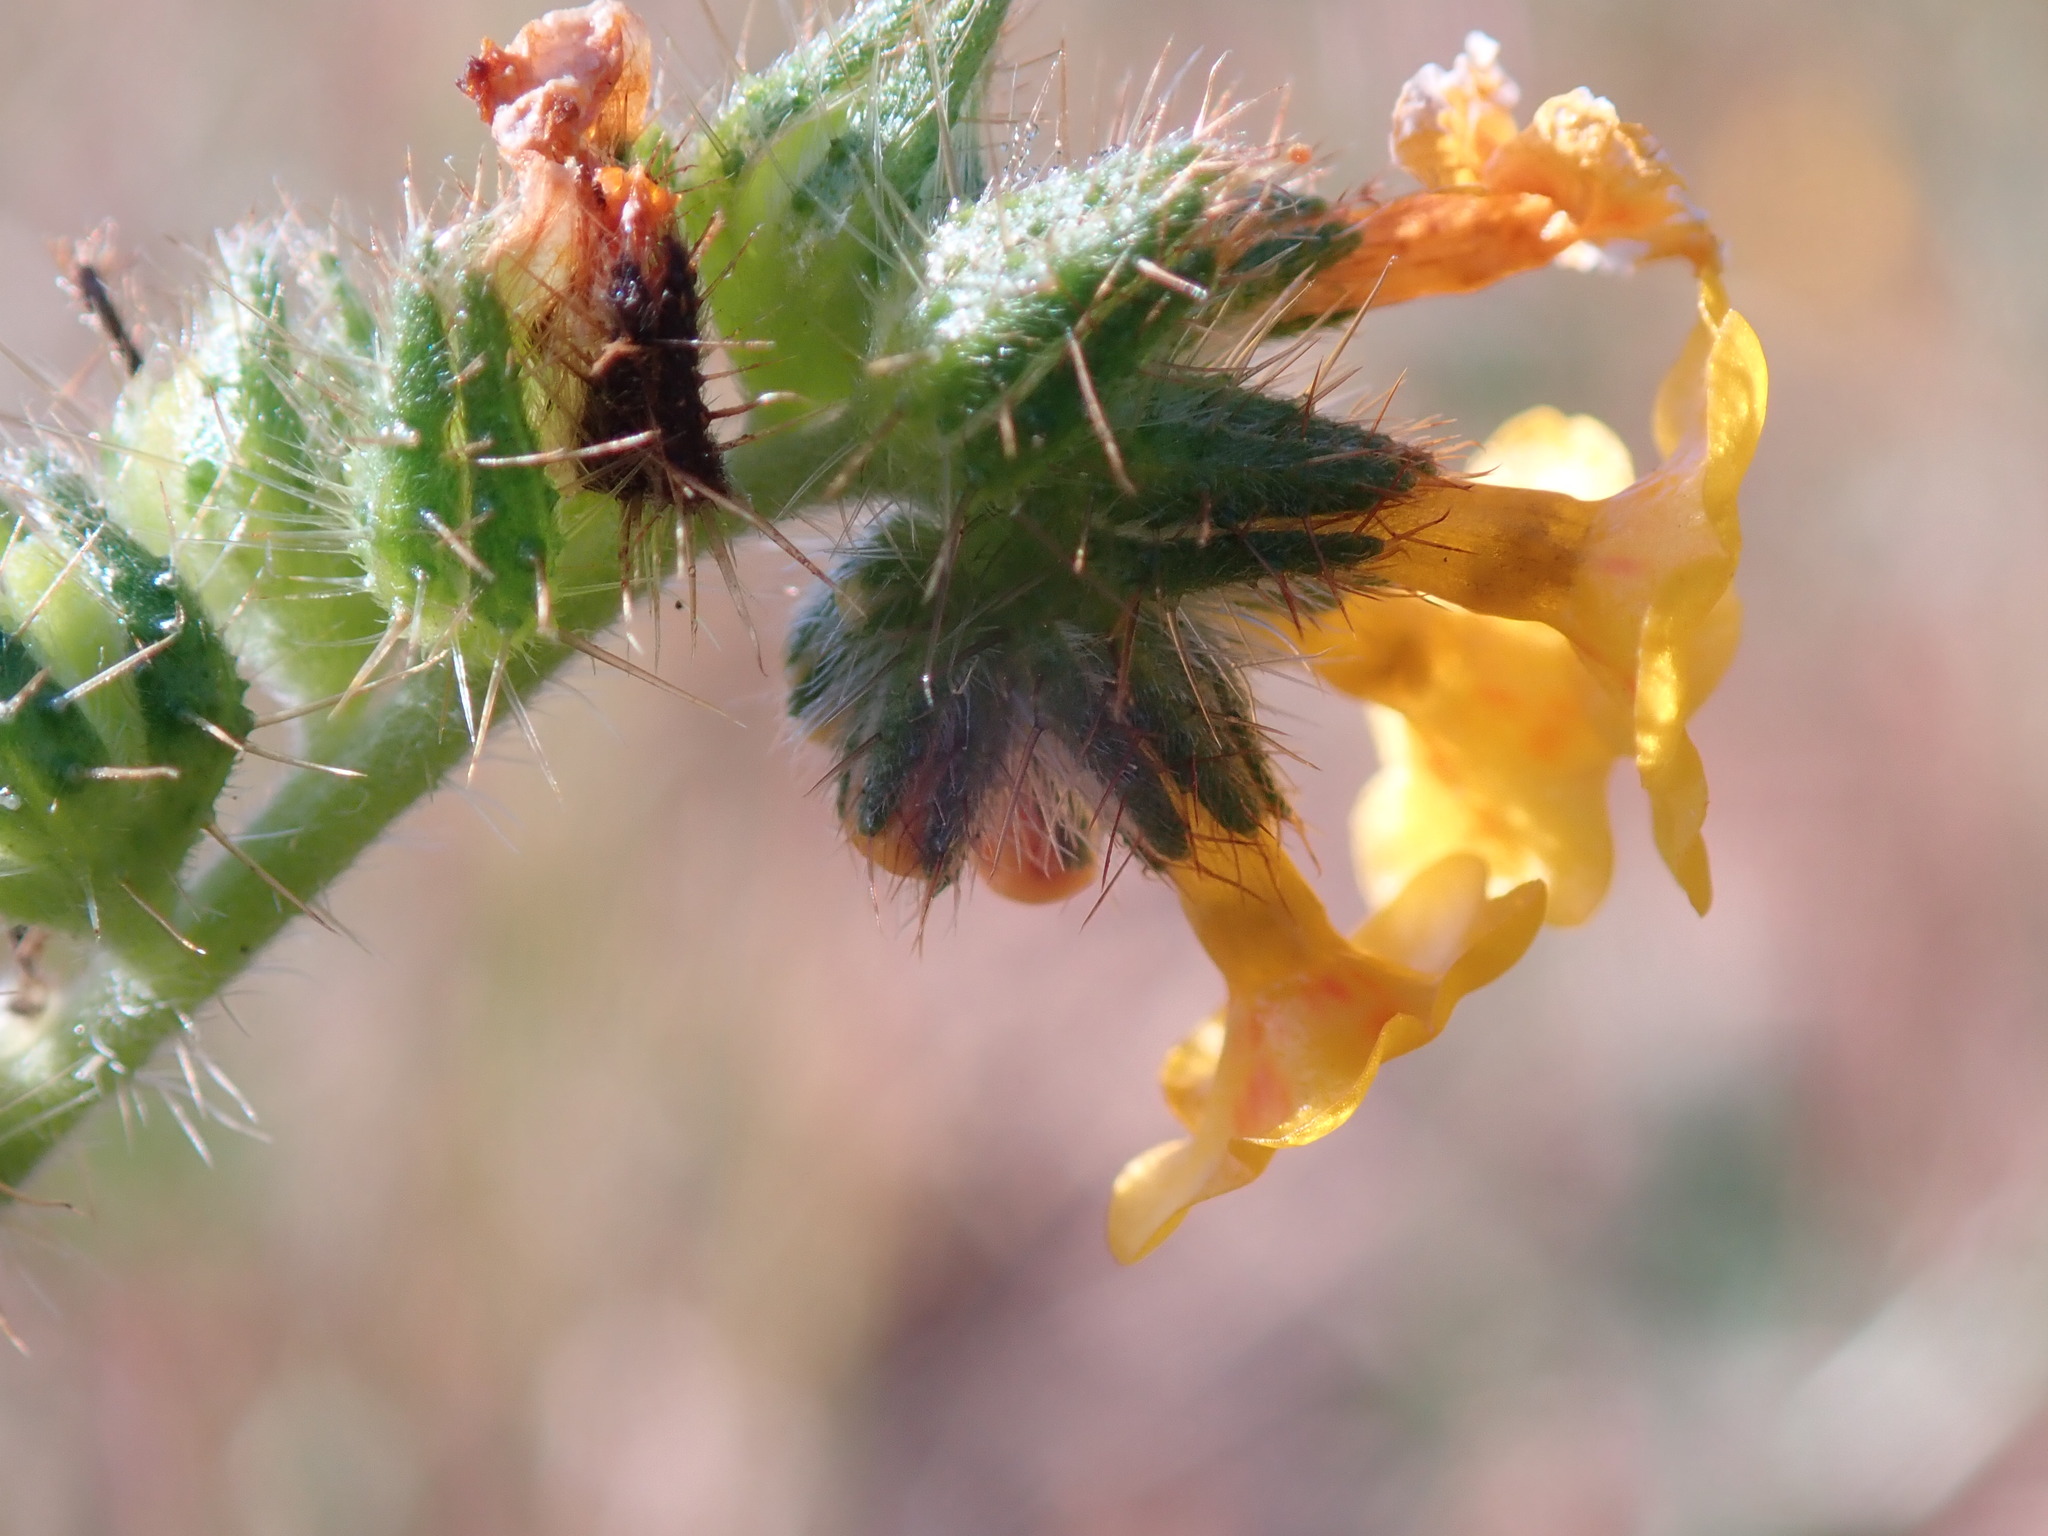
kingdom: Plantae
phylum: Tracheophyta
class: Magnoliopsida
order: Boraginales
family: Boraginaceae
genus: Amsinckia
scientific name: Amsinckia menziesii
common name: Menzies' fiddleneck
